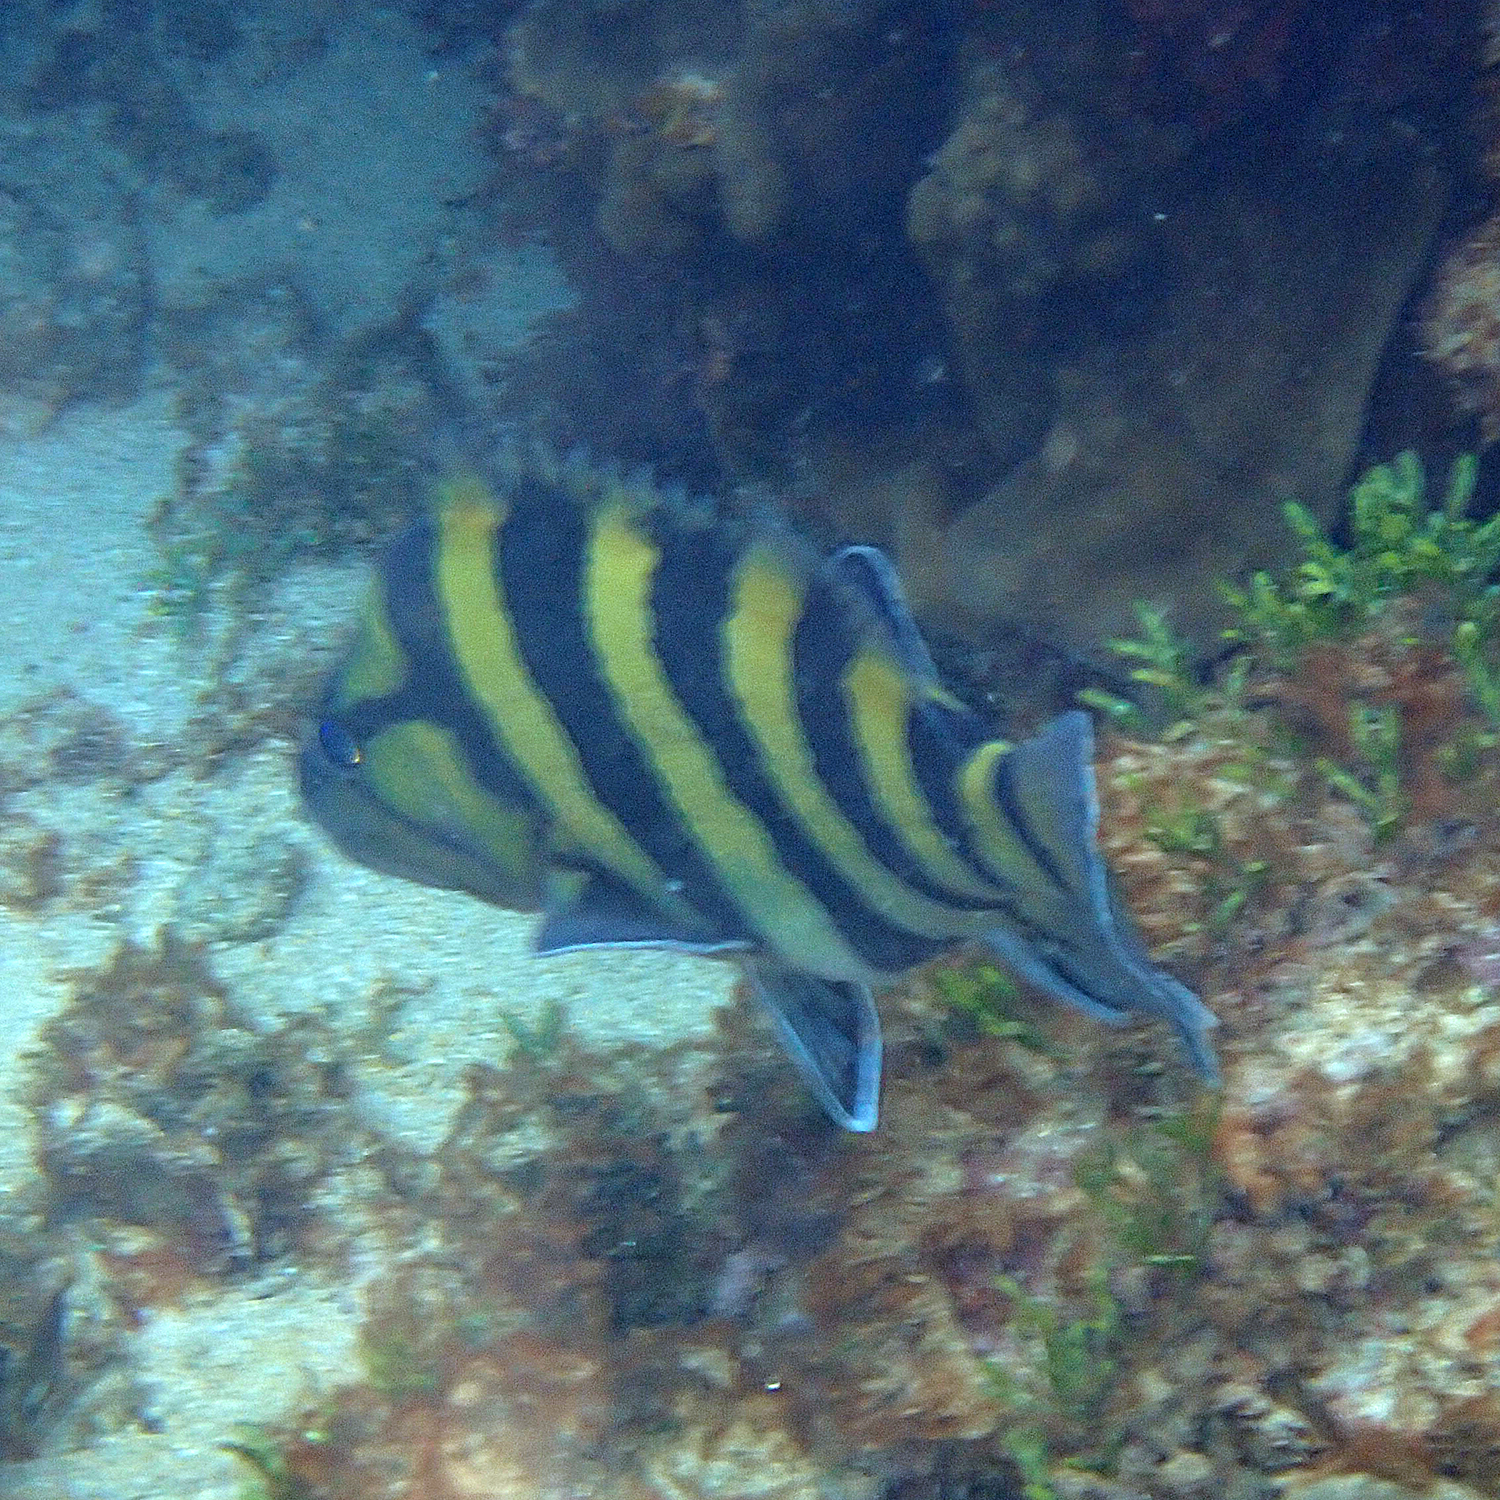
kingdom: Animalia
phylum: Chordata
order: Perciformes
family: Serranidae
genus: Acanthistius
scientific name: Acanthistius cinctus
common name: Girdled rock cod
